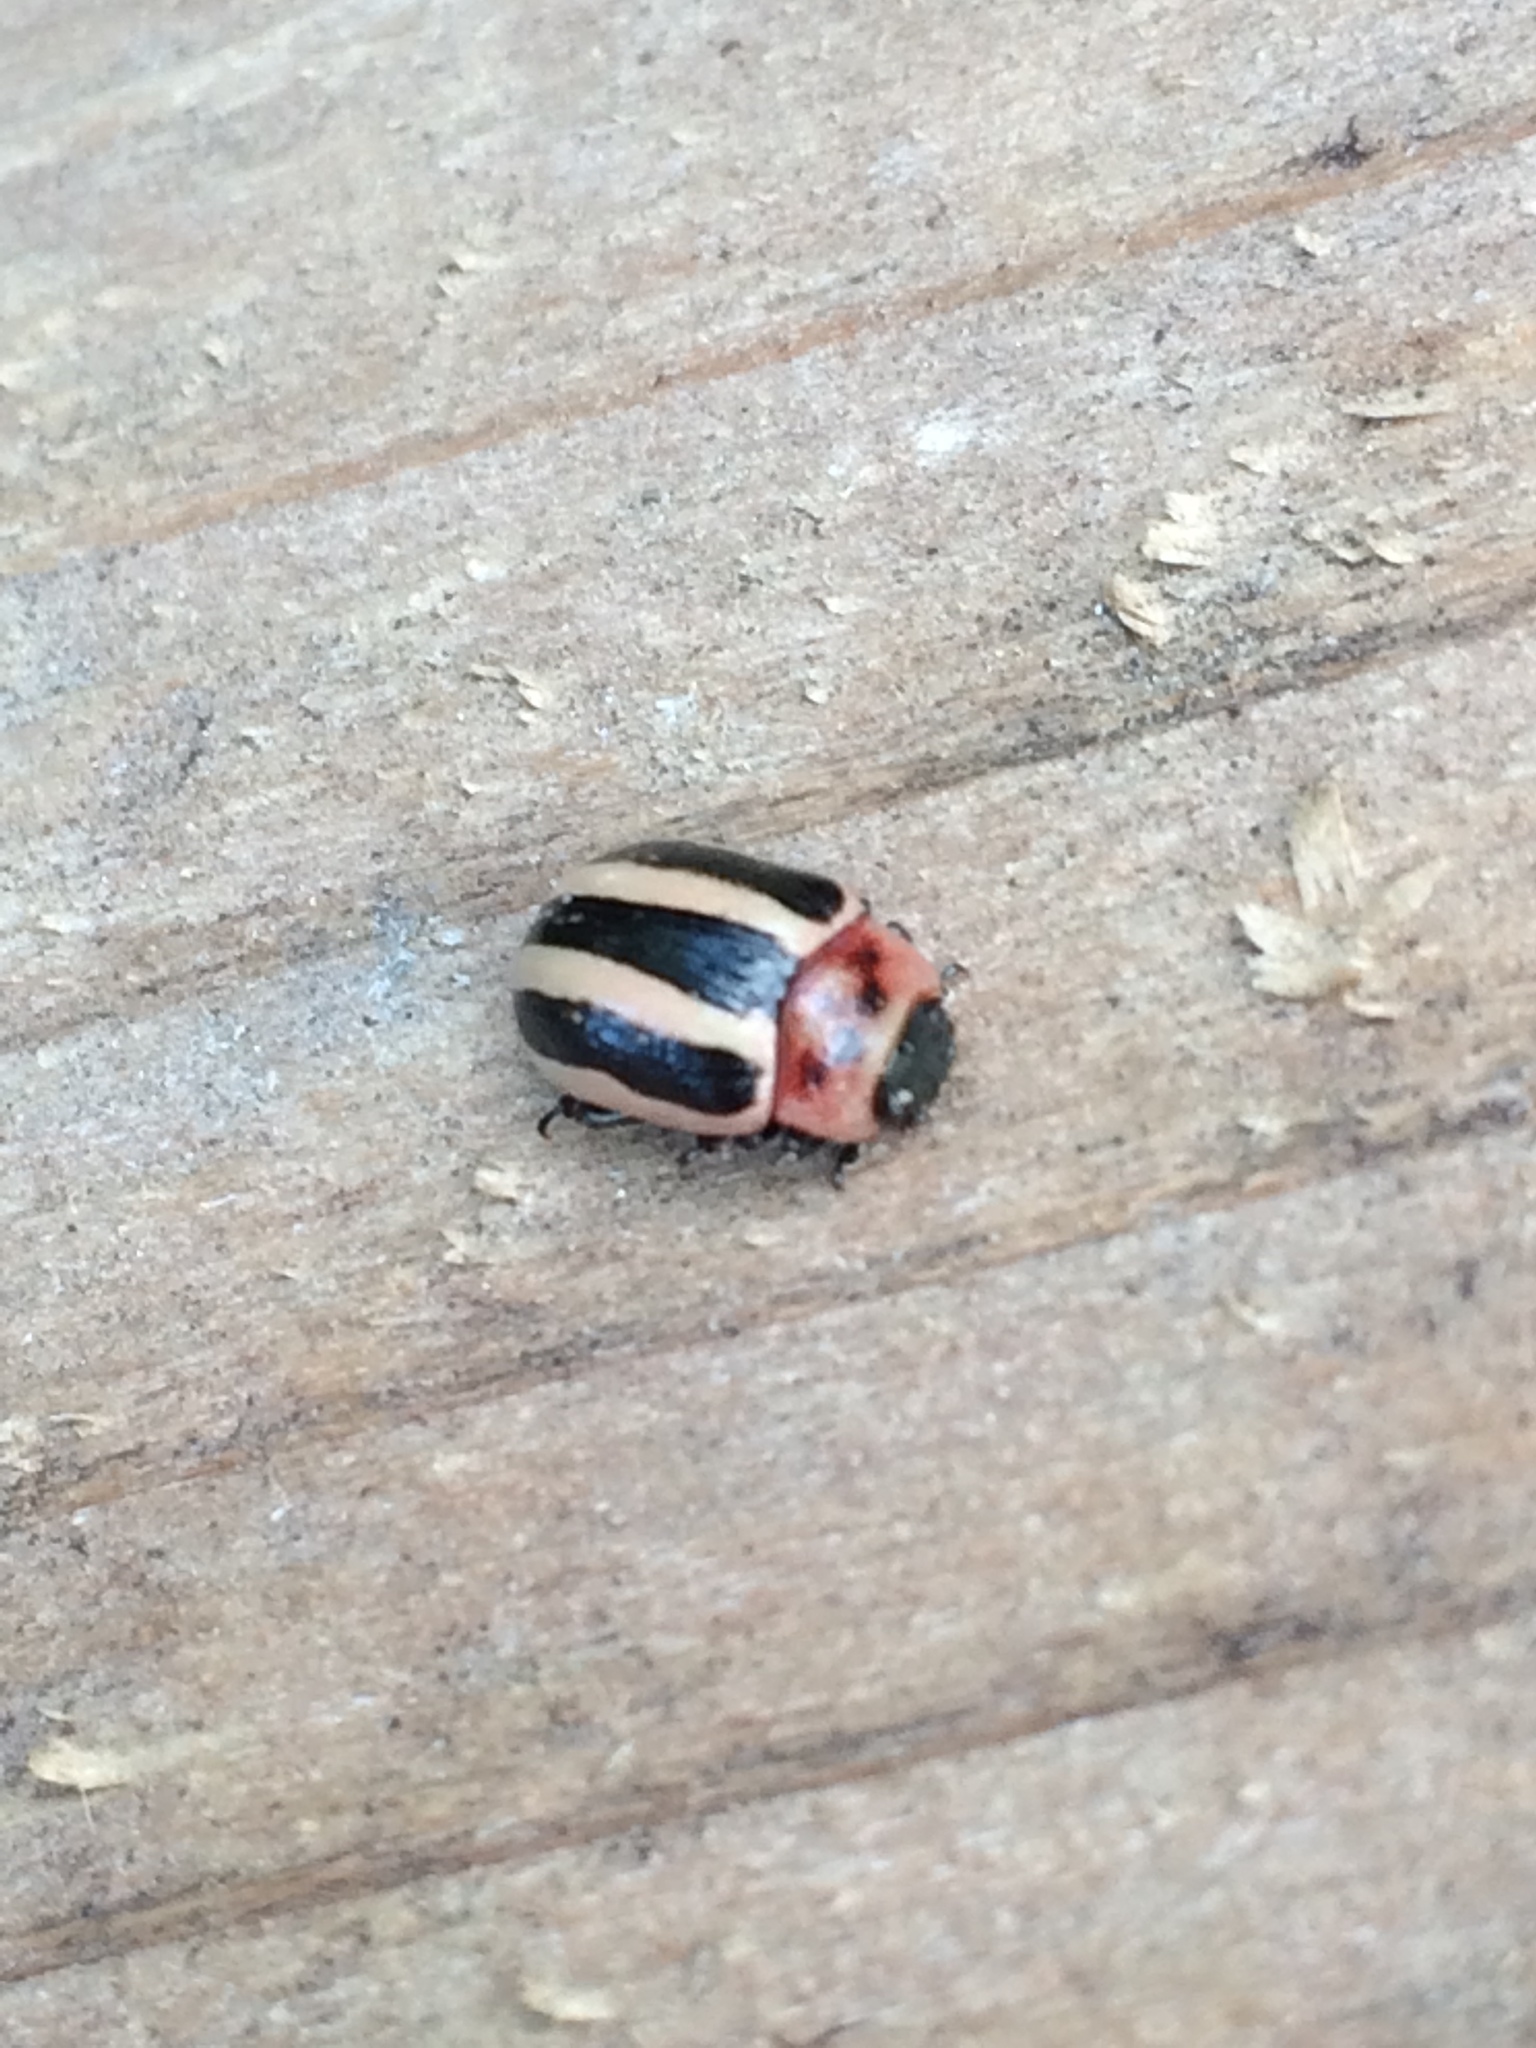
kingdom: Animalia
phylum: Arthropoda
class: Insecta
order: Coleoptera
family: Chrysomelidae
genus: Calligrapha
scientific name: Calligrapha californica
